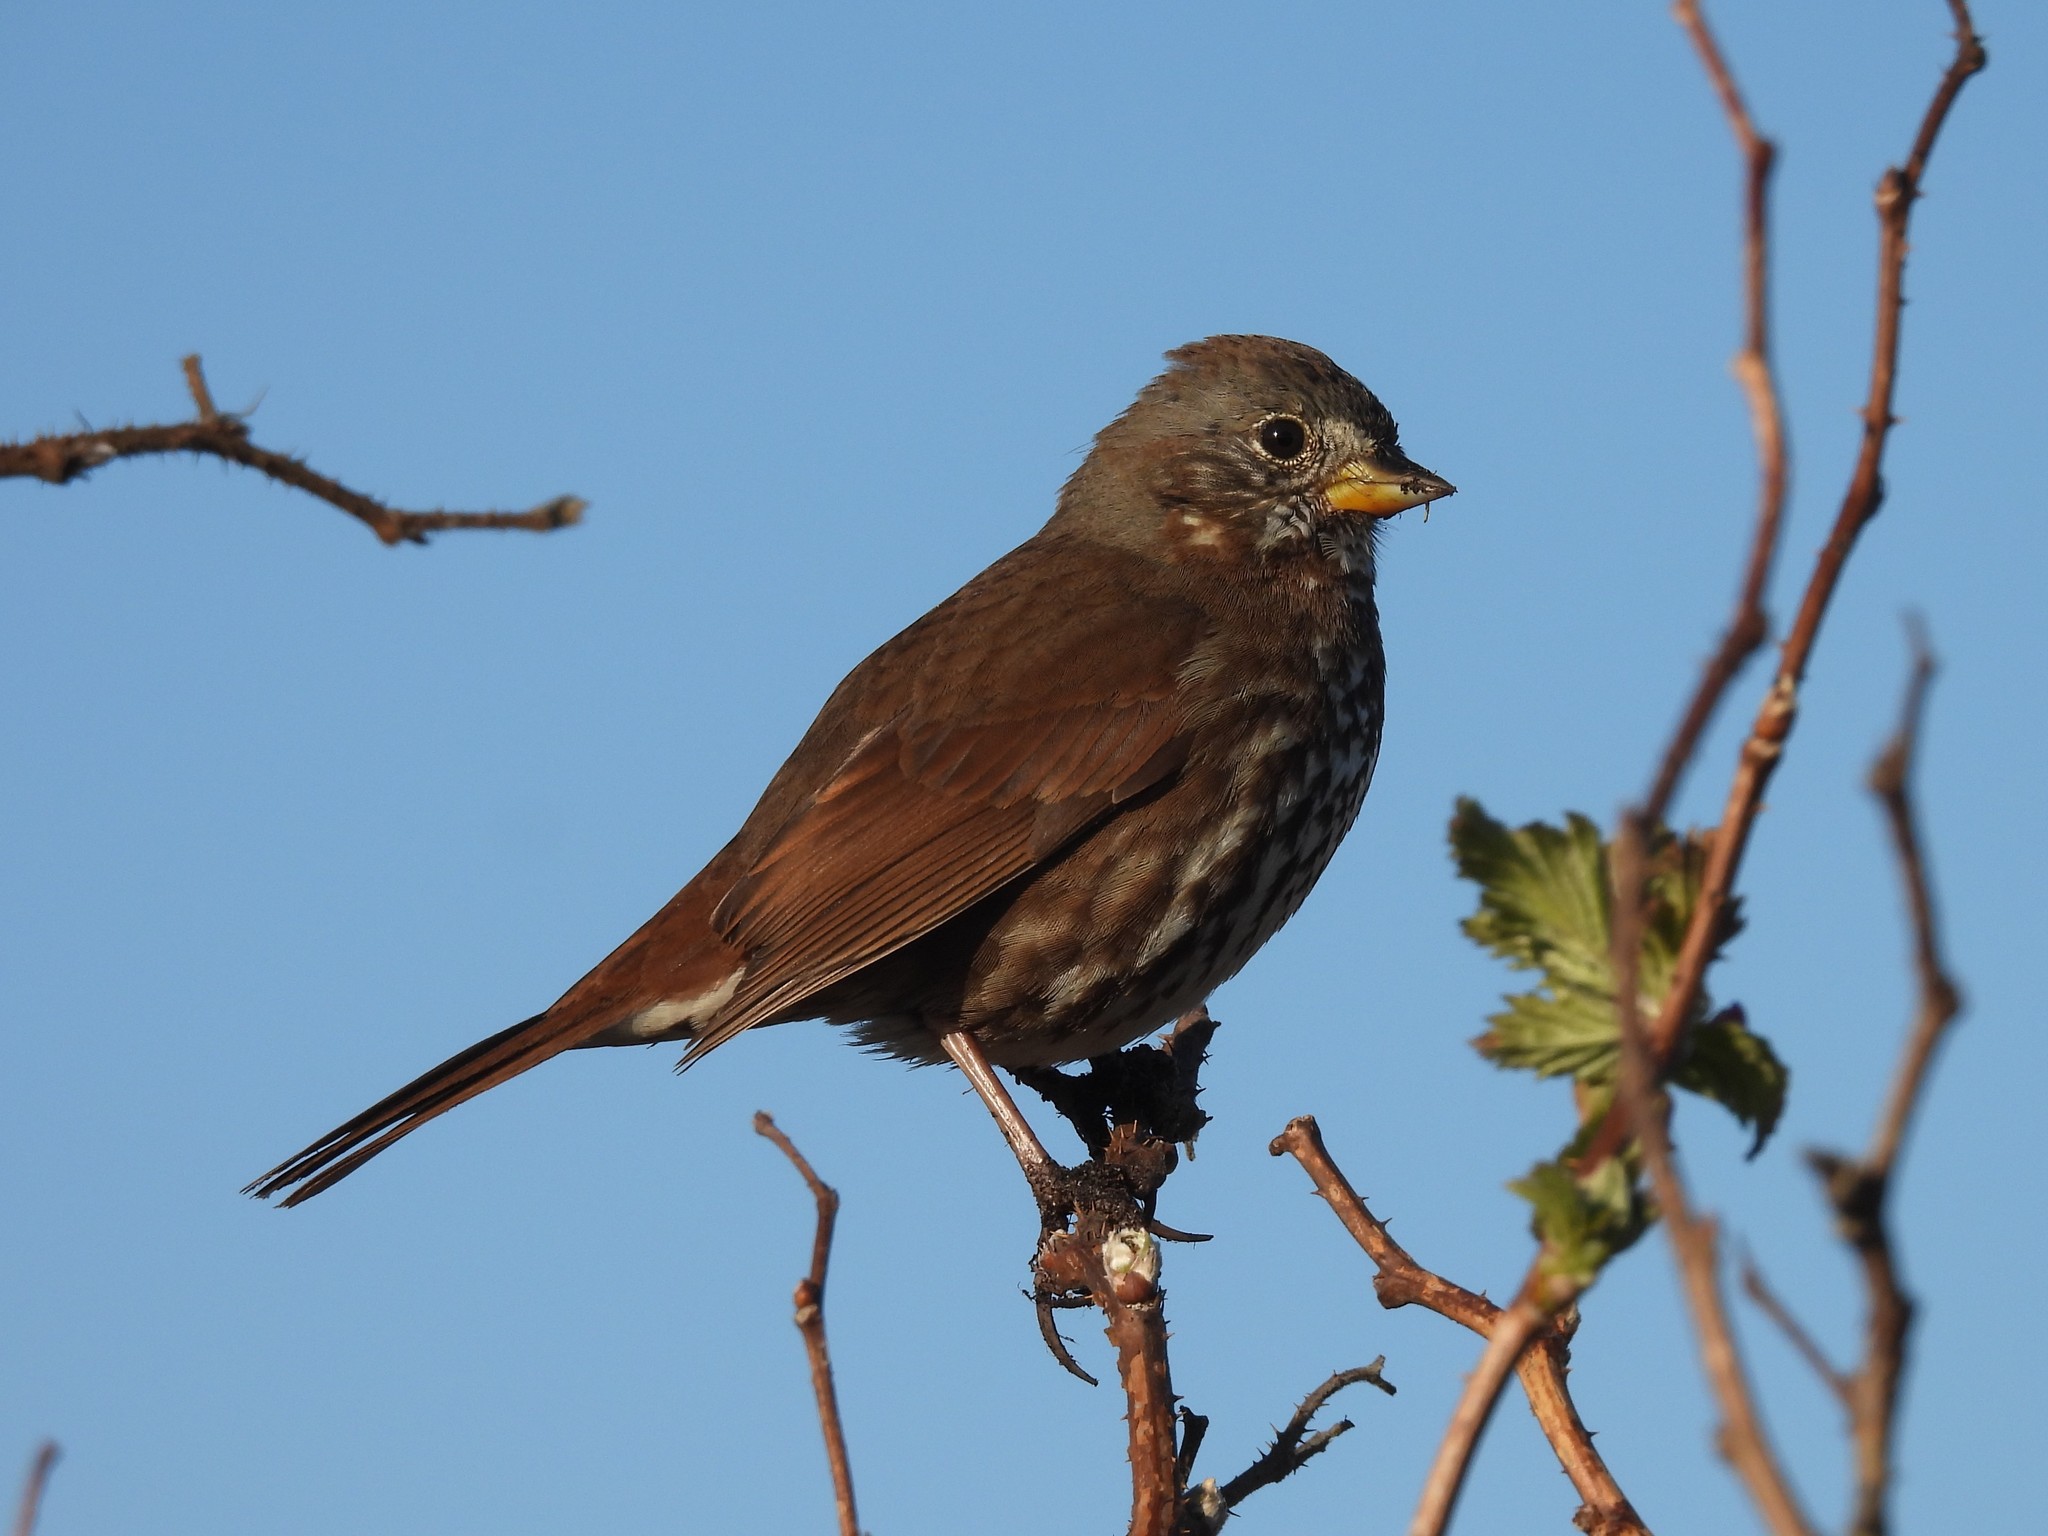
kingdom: Animalia
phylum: Chordata
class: Aves
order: Passeriformes
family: Passerellidae
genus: Passerella
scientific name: Passerella iliaca
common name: Fox sparrow
